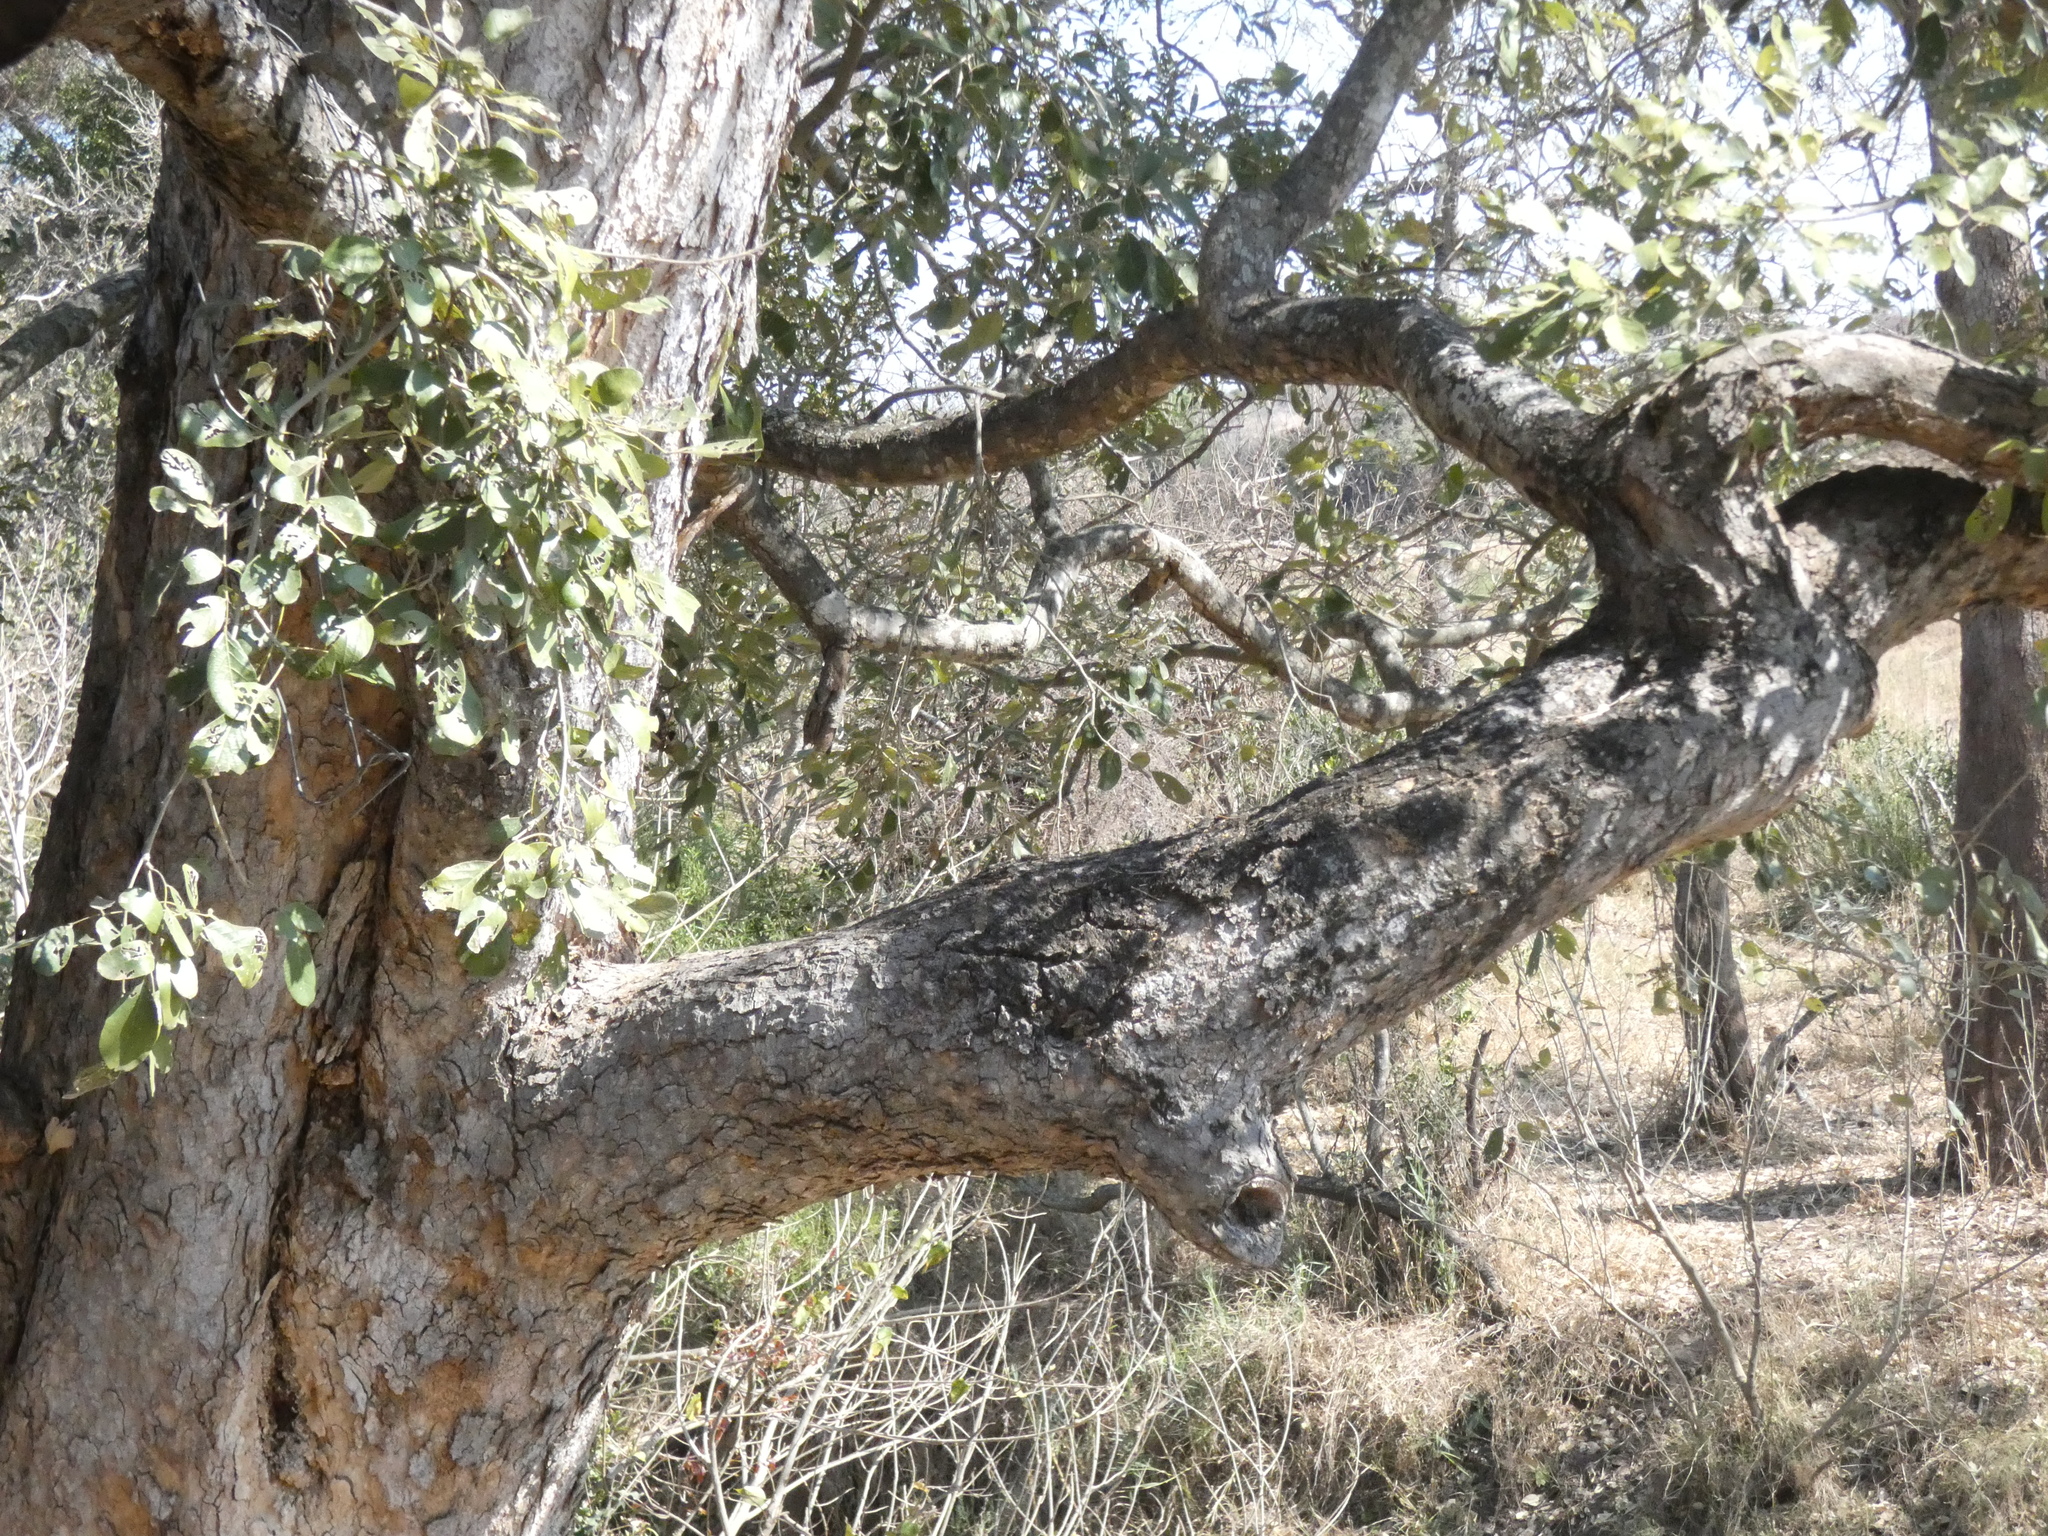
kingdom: Plantae
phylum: Tracheophyta
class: Magnoliopsida
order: Fabales
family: Fabaceae
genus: Philenoptera
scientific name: Philenoptera violacea
